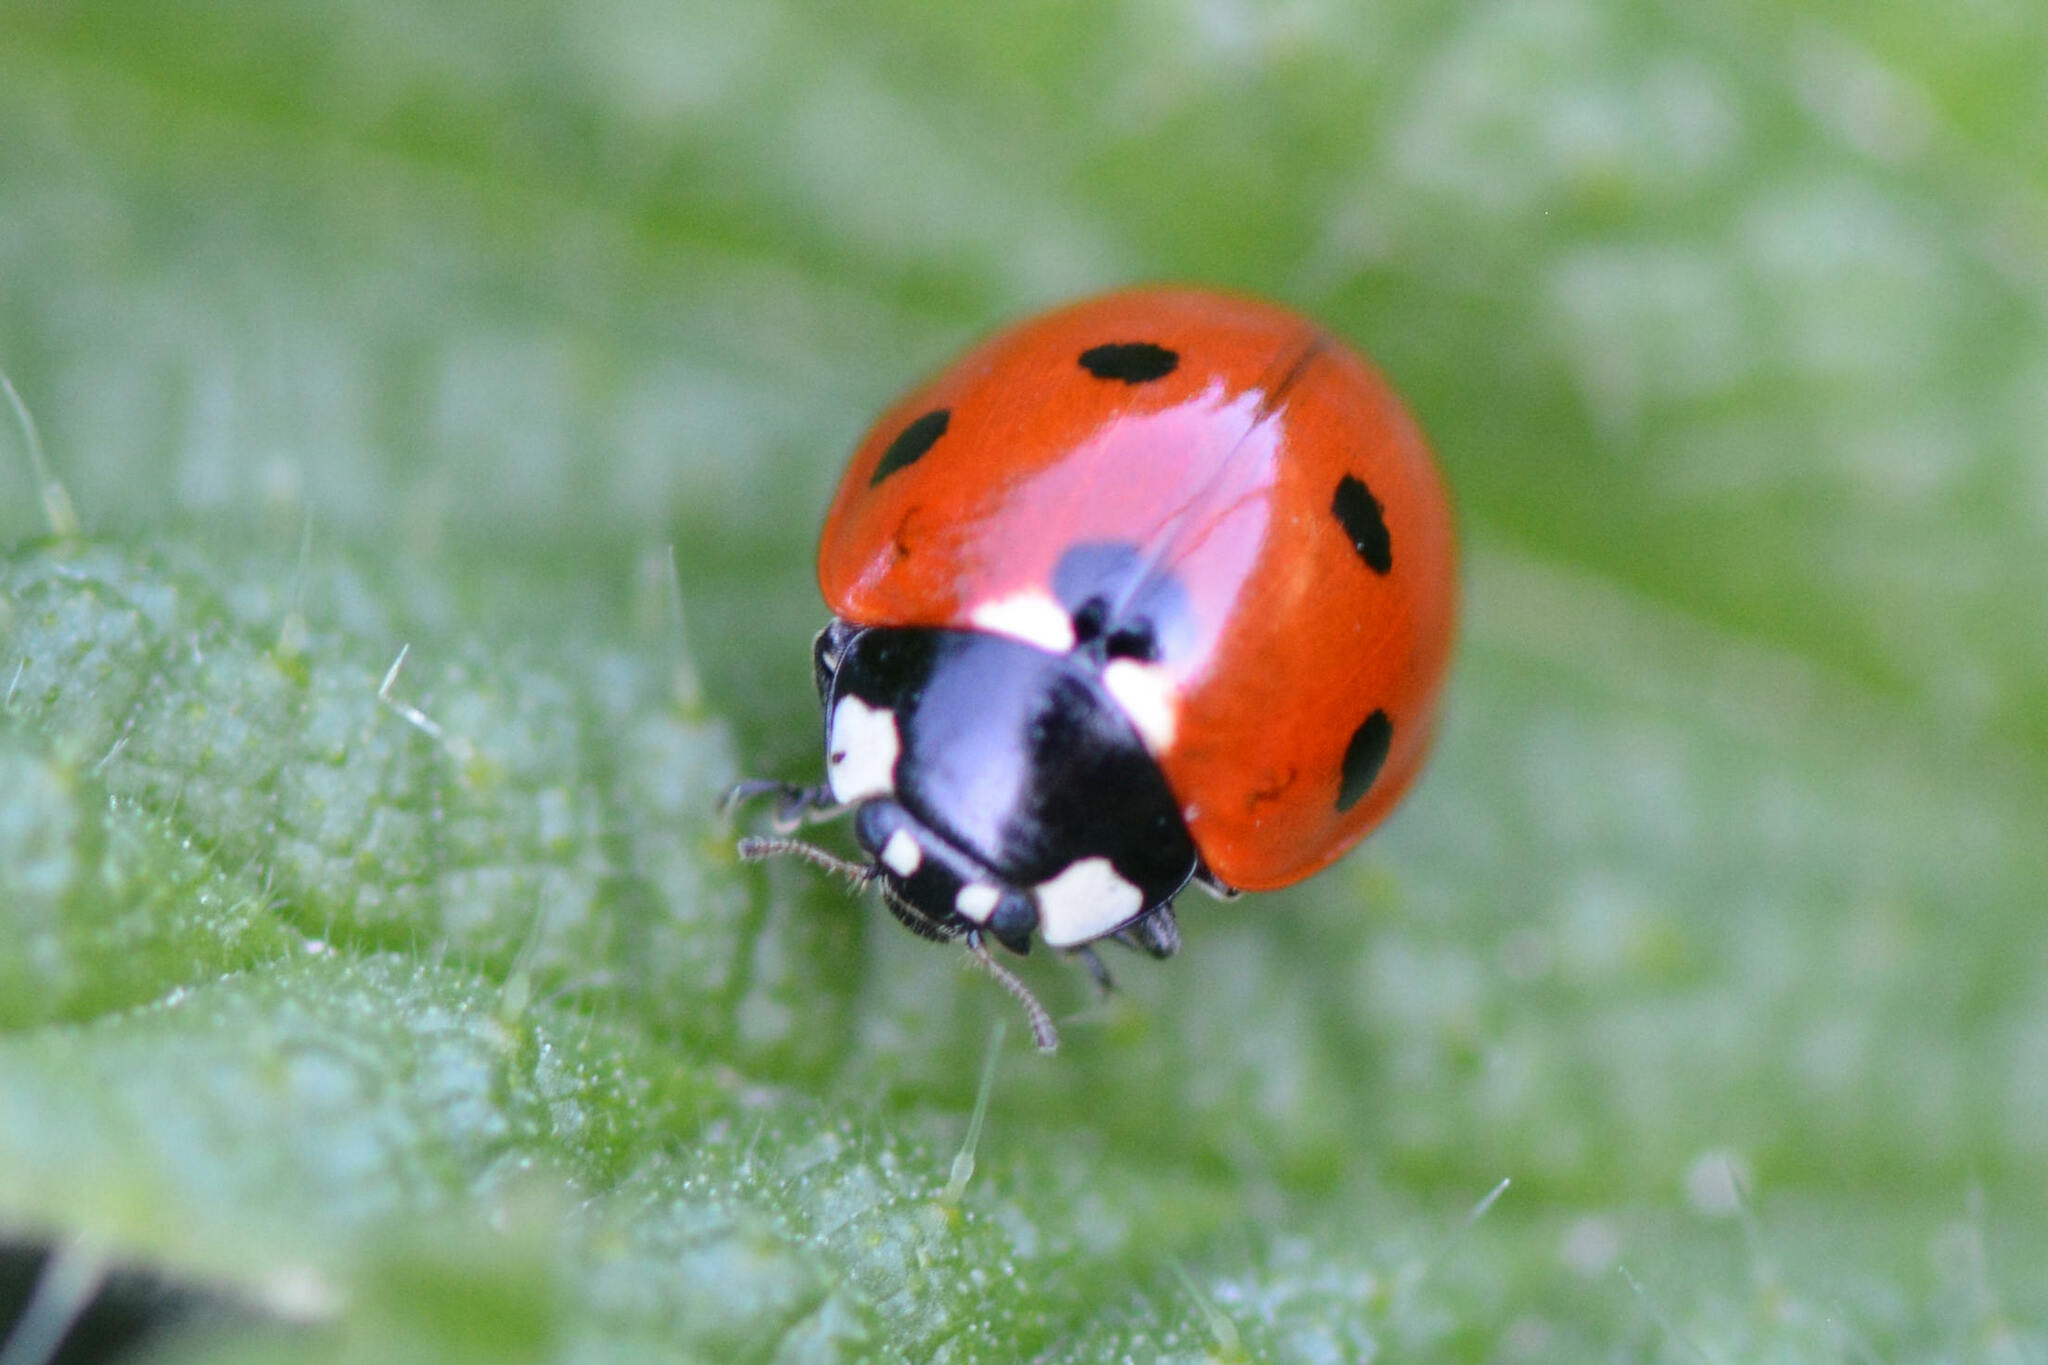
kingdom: Animalia
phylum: Arthropoda
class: Insecta
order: Coleoptera
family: Coccinellidae
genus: Coccinella
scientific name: Coccinella septempunctata
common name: Sevenspotted lady beetle
